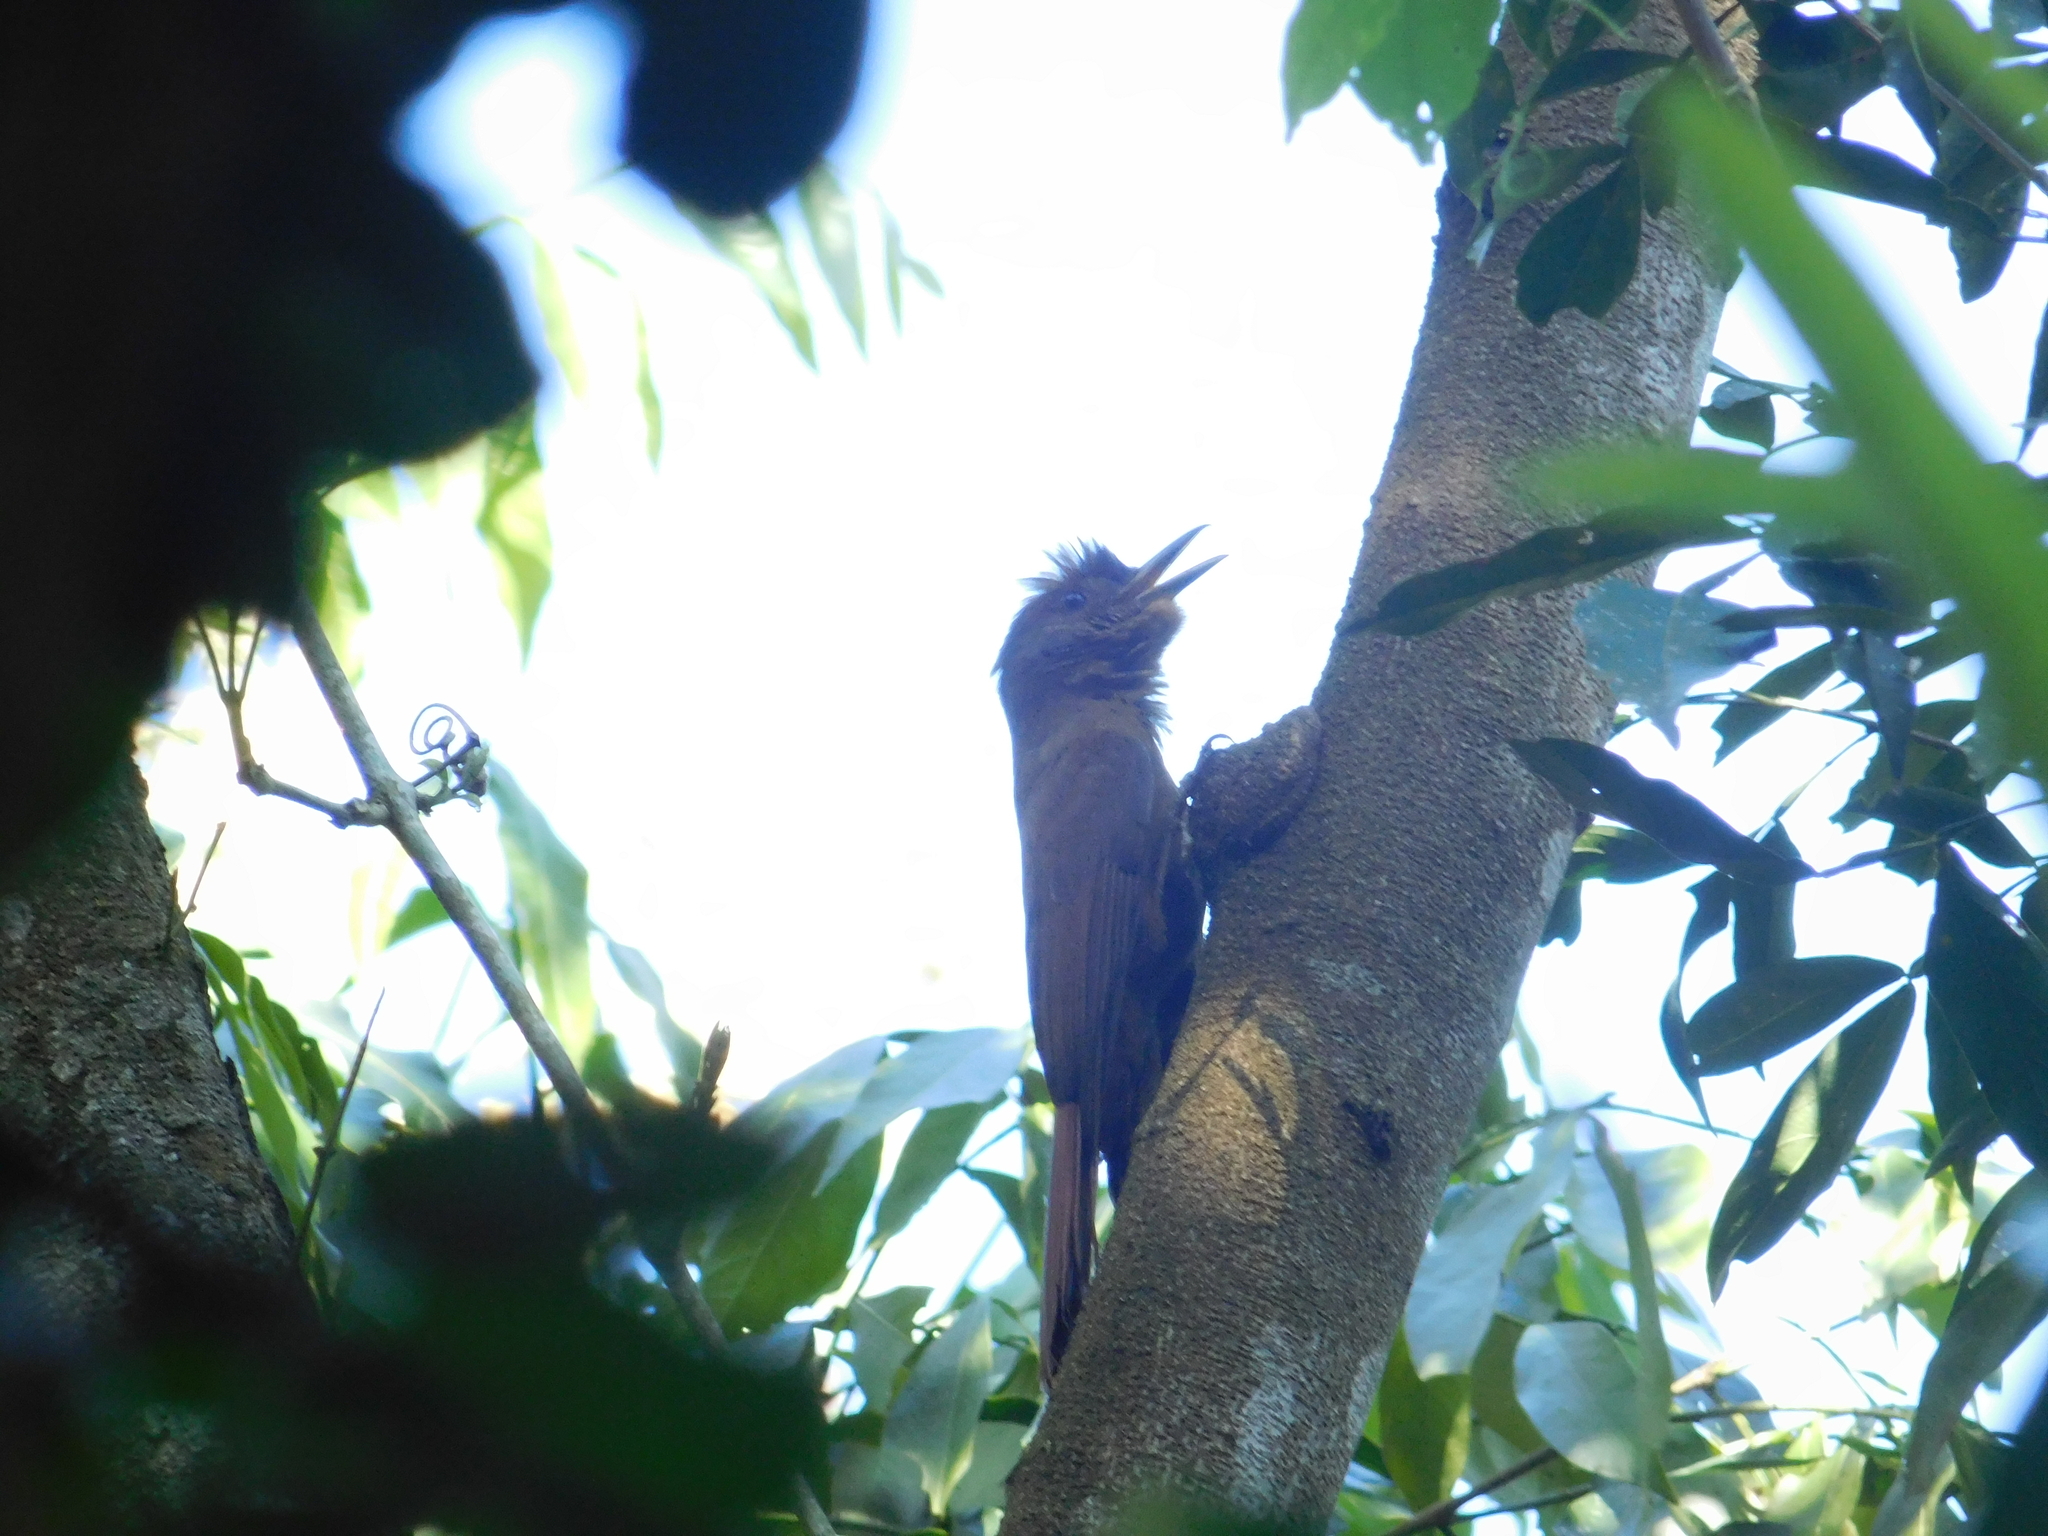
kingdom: Animalia
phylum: Chordata
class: Aves
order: Passeriformes
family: Furnariidae
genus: Dendrocincla
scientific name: Dendrocincla fuliginosa
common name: Plain-brown woodcreeper
